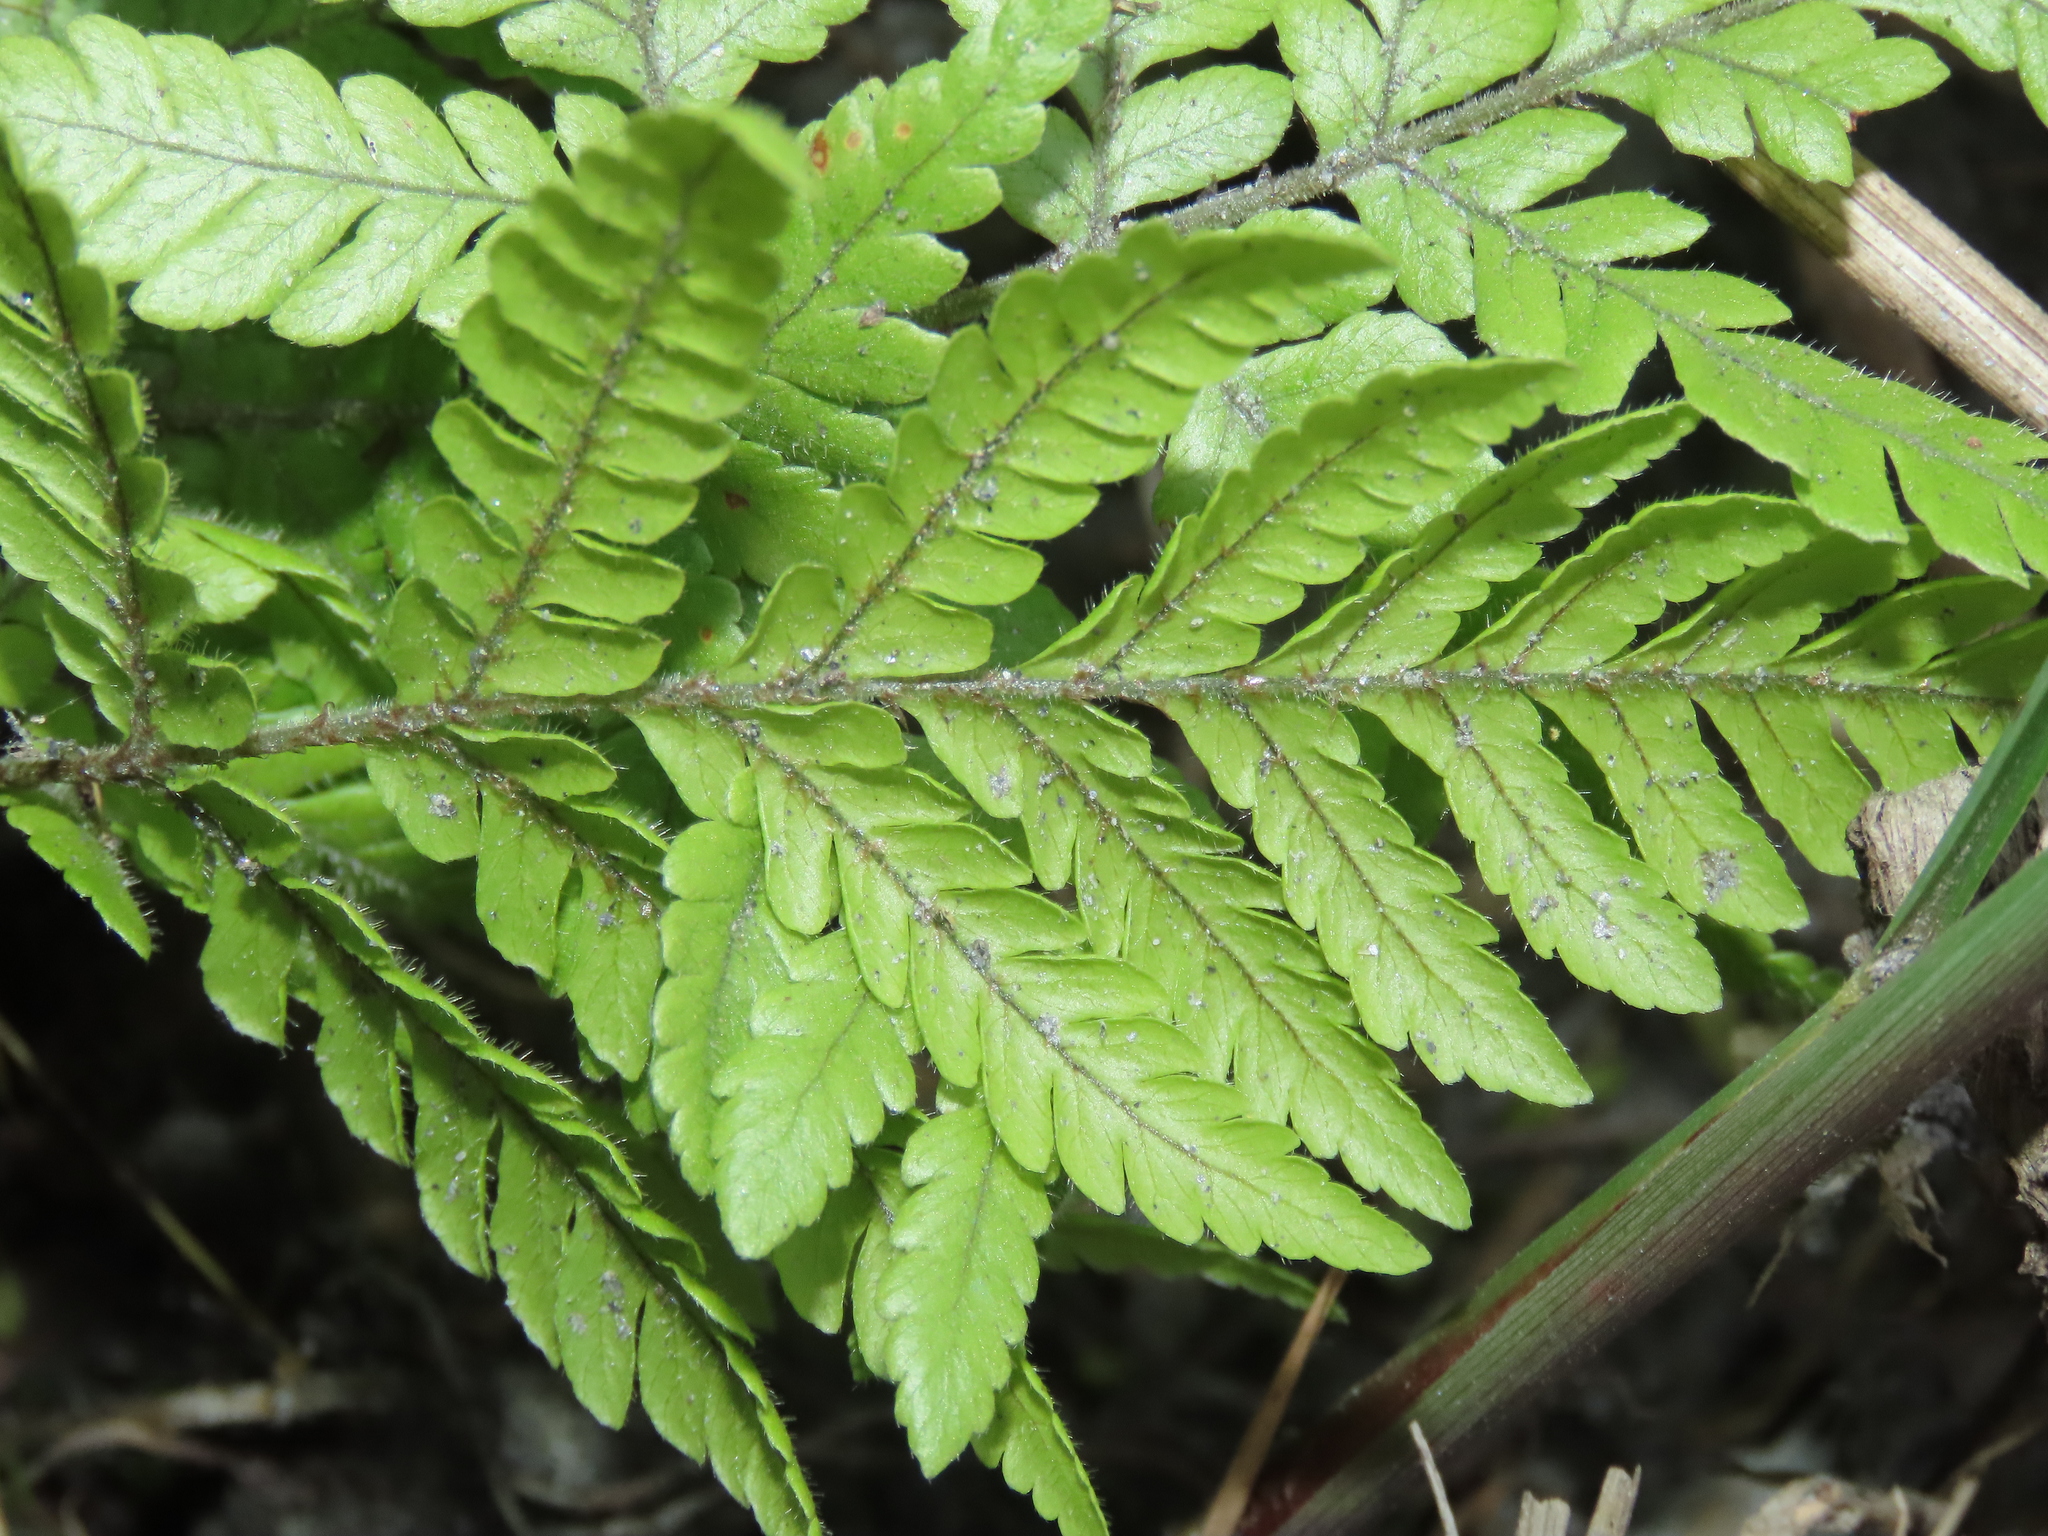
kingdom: Plantae
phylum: Tracheophyta
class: Polypodiopsida
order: Polypodiales
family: Dryopteridaceae
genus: Ctenitis
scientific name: Ctenitis subglandulosa
